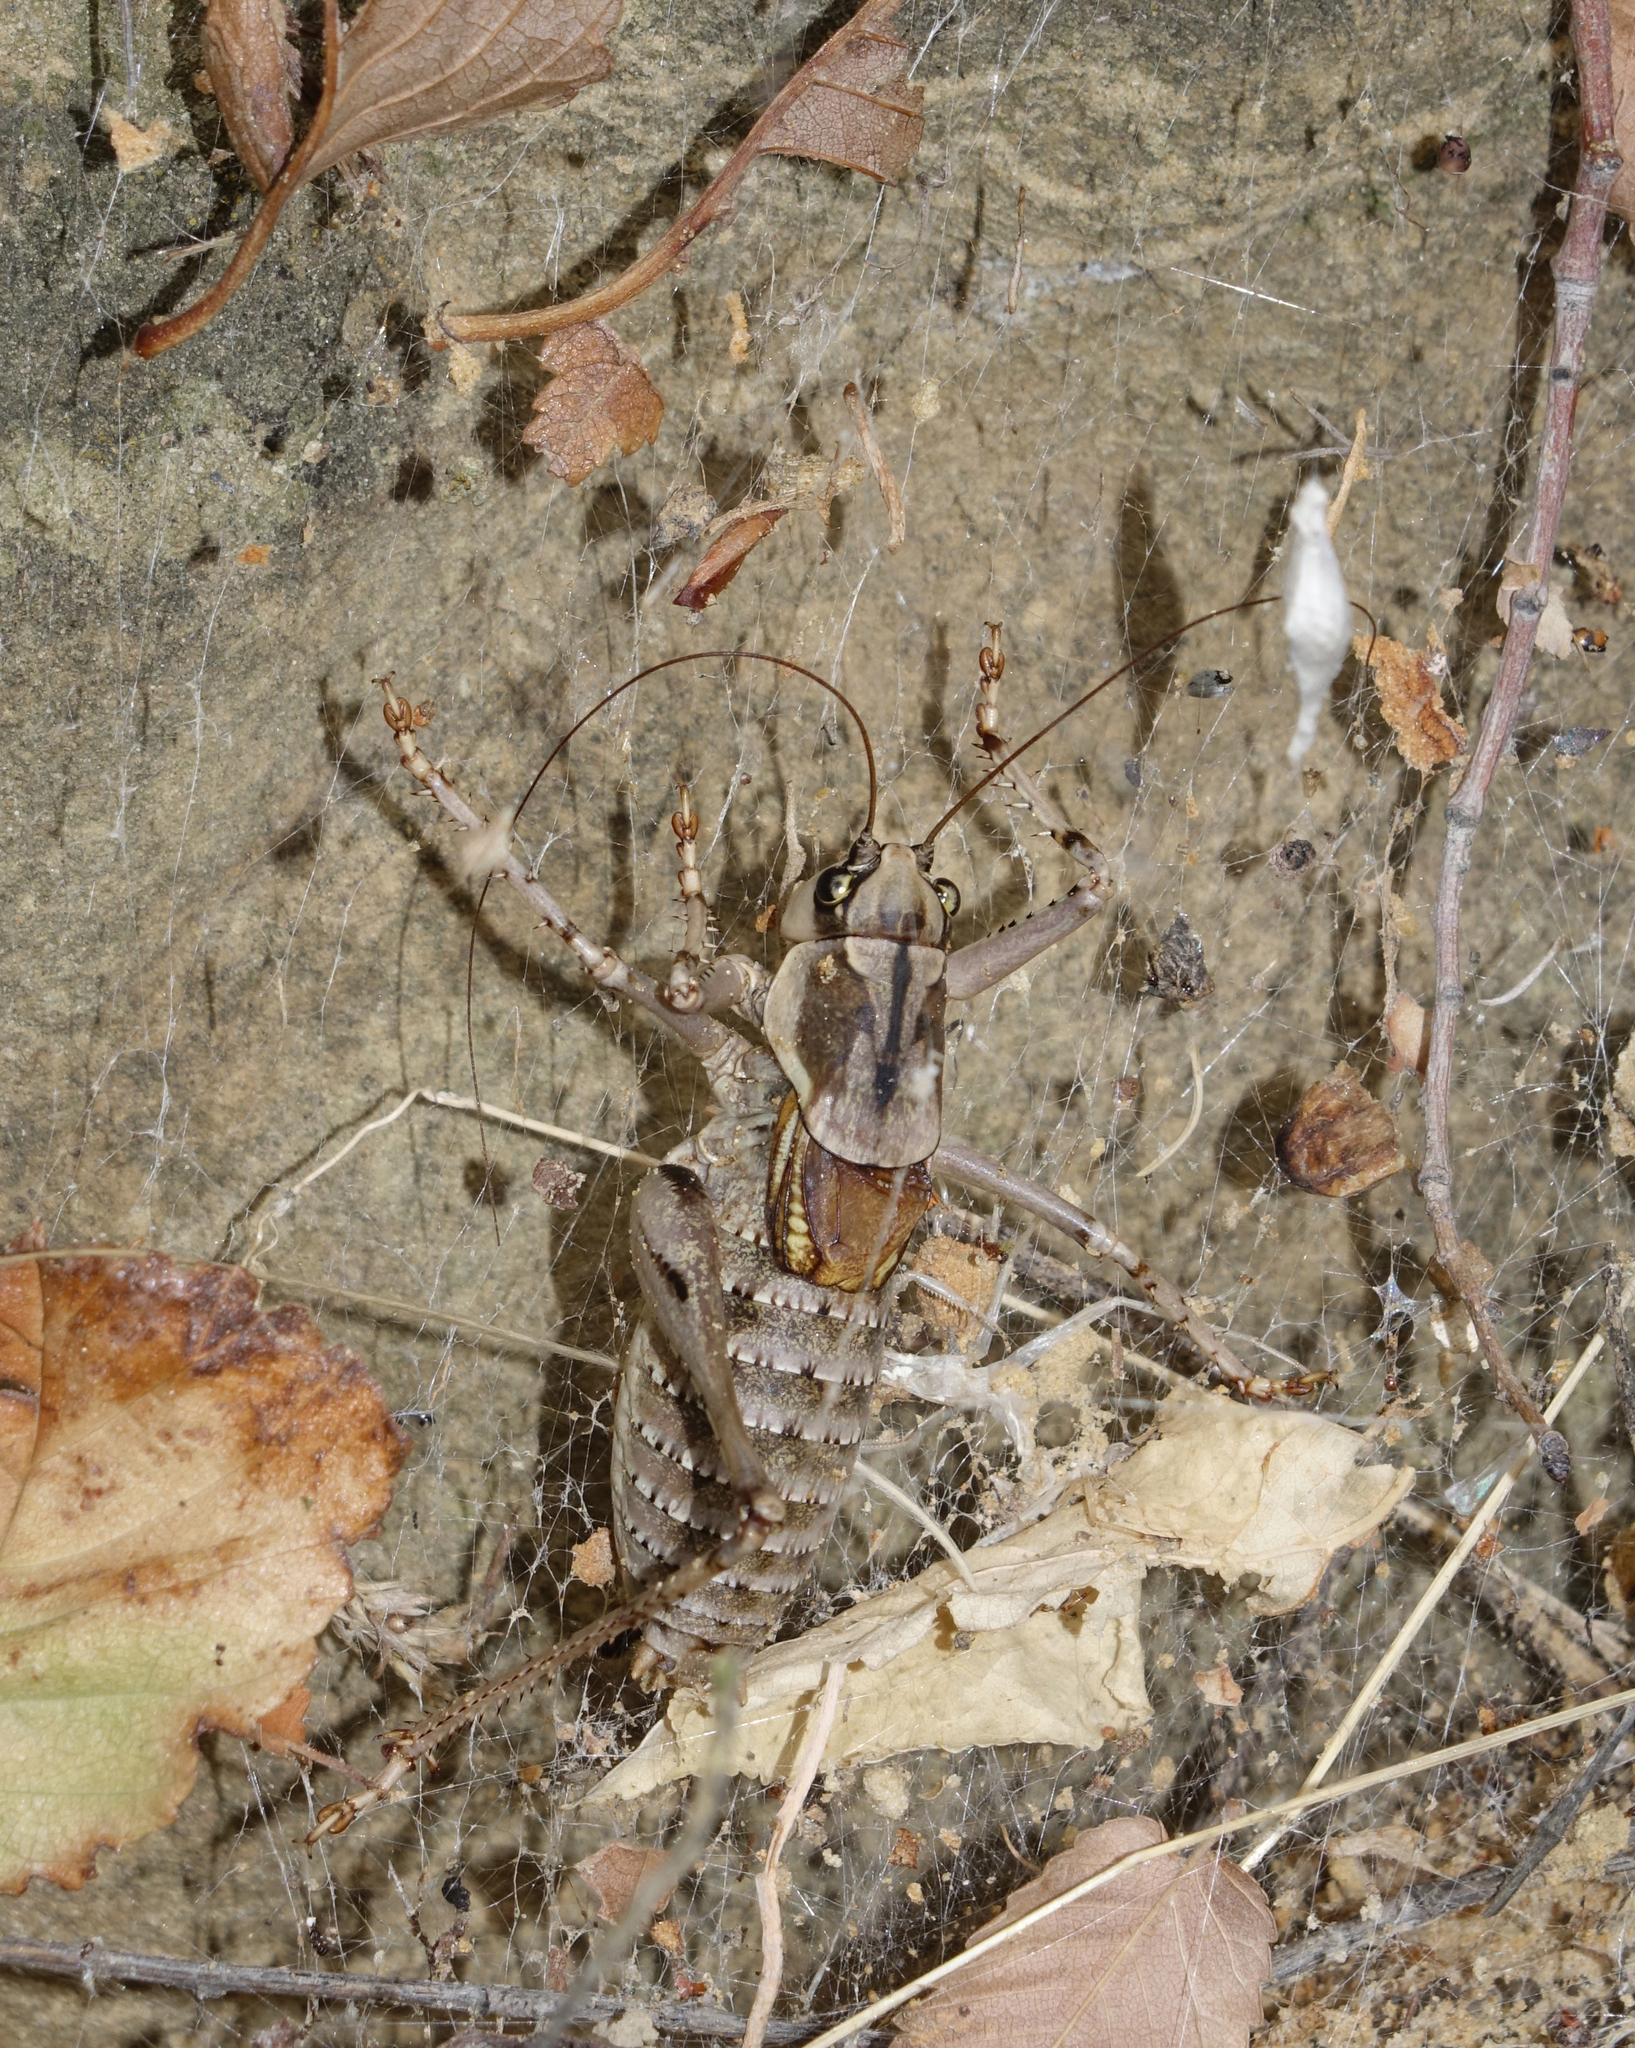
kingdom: Animalia
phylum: Arthropoda
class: Insecta
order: Orthoptera
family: Tettigoniidae
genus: Anadrymadusa
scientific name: Anadrymadusa picta
